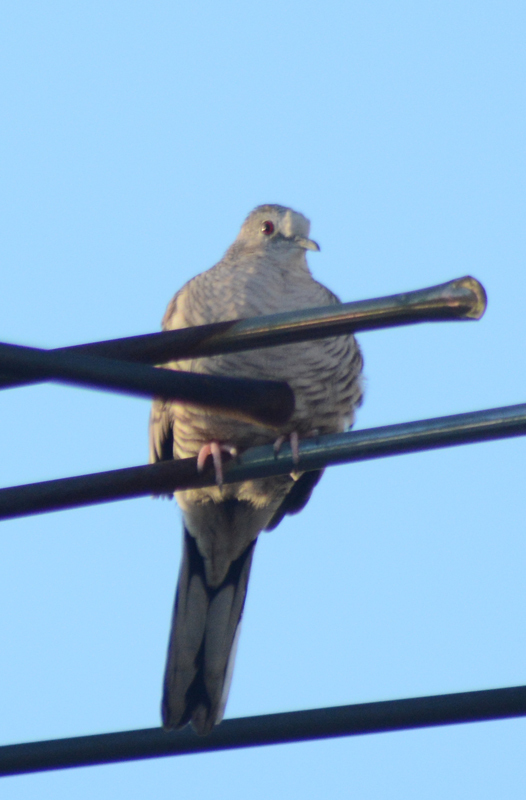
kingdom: Animalia
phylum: Chordata
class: Aves
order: Columbiformes
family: Columbidae
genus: Columbina
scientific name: Columbina inca
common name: Inca dove
